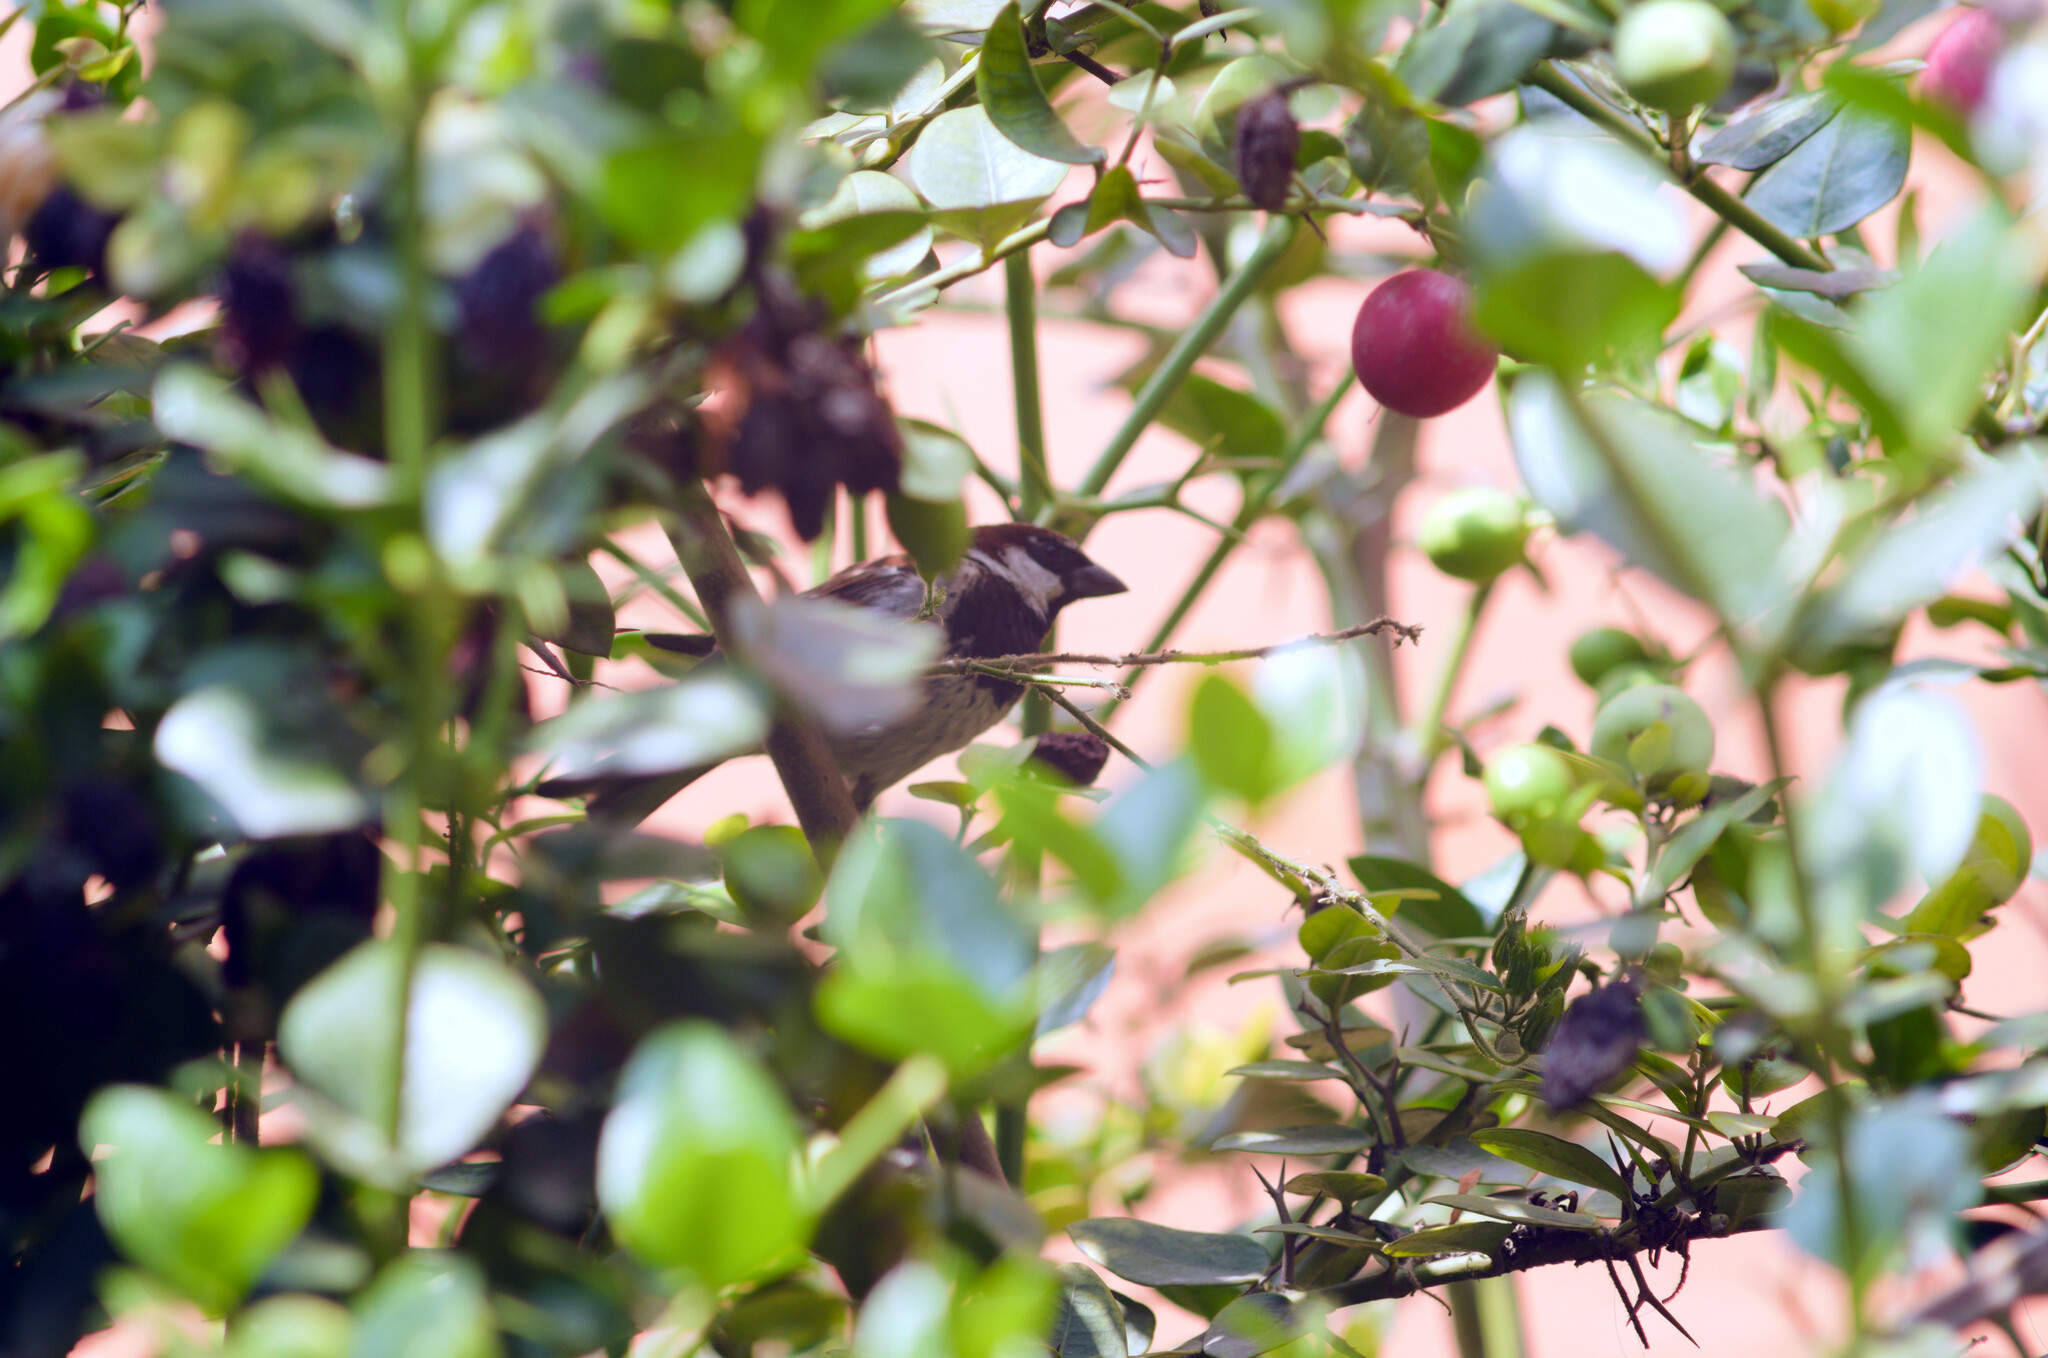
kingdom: Animalia
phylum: Chordata
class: Aves
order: Passeriformes
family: Passeridae
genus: Passer
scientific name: Passer domesticus
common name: House sparrow
